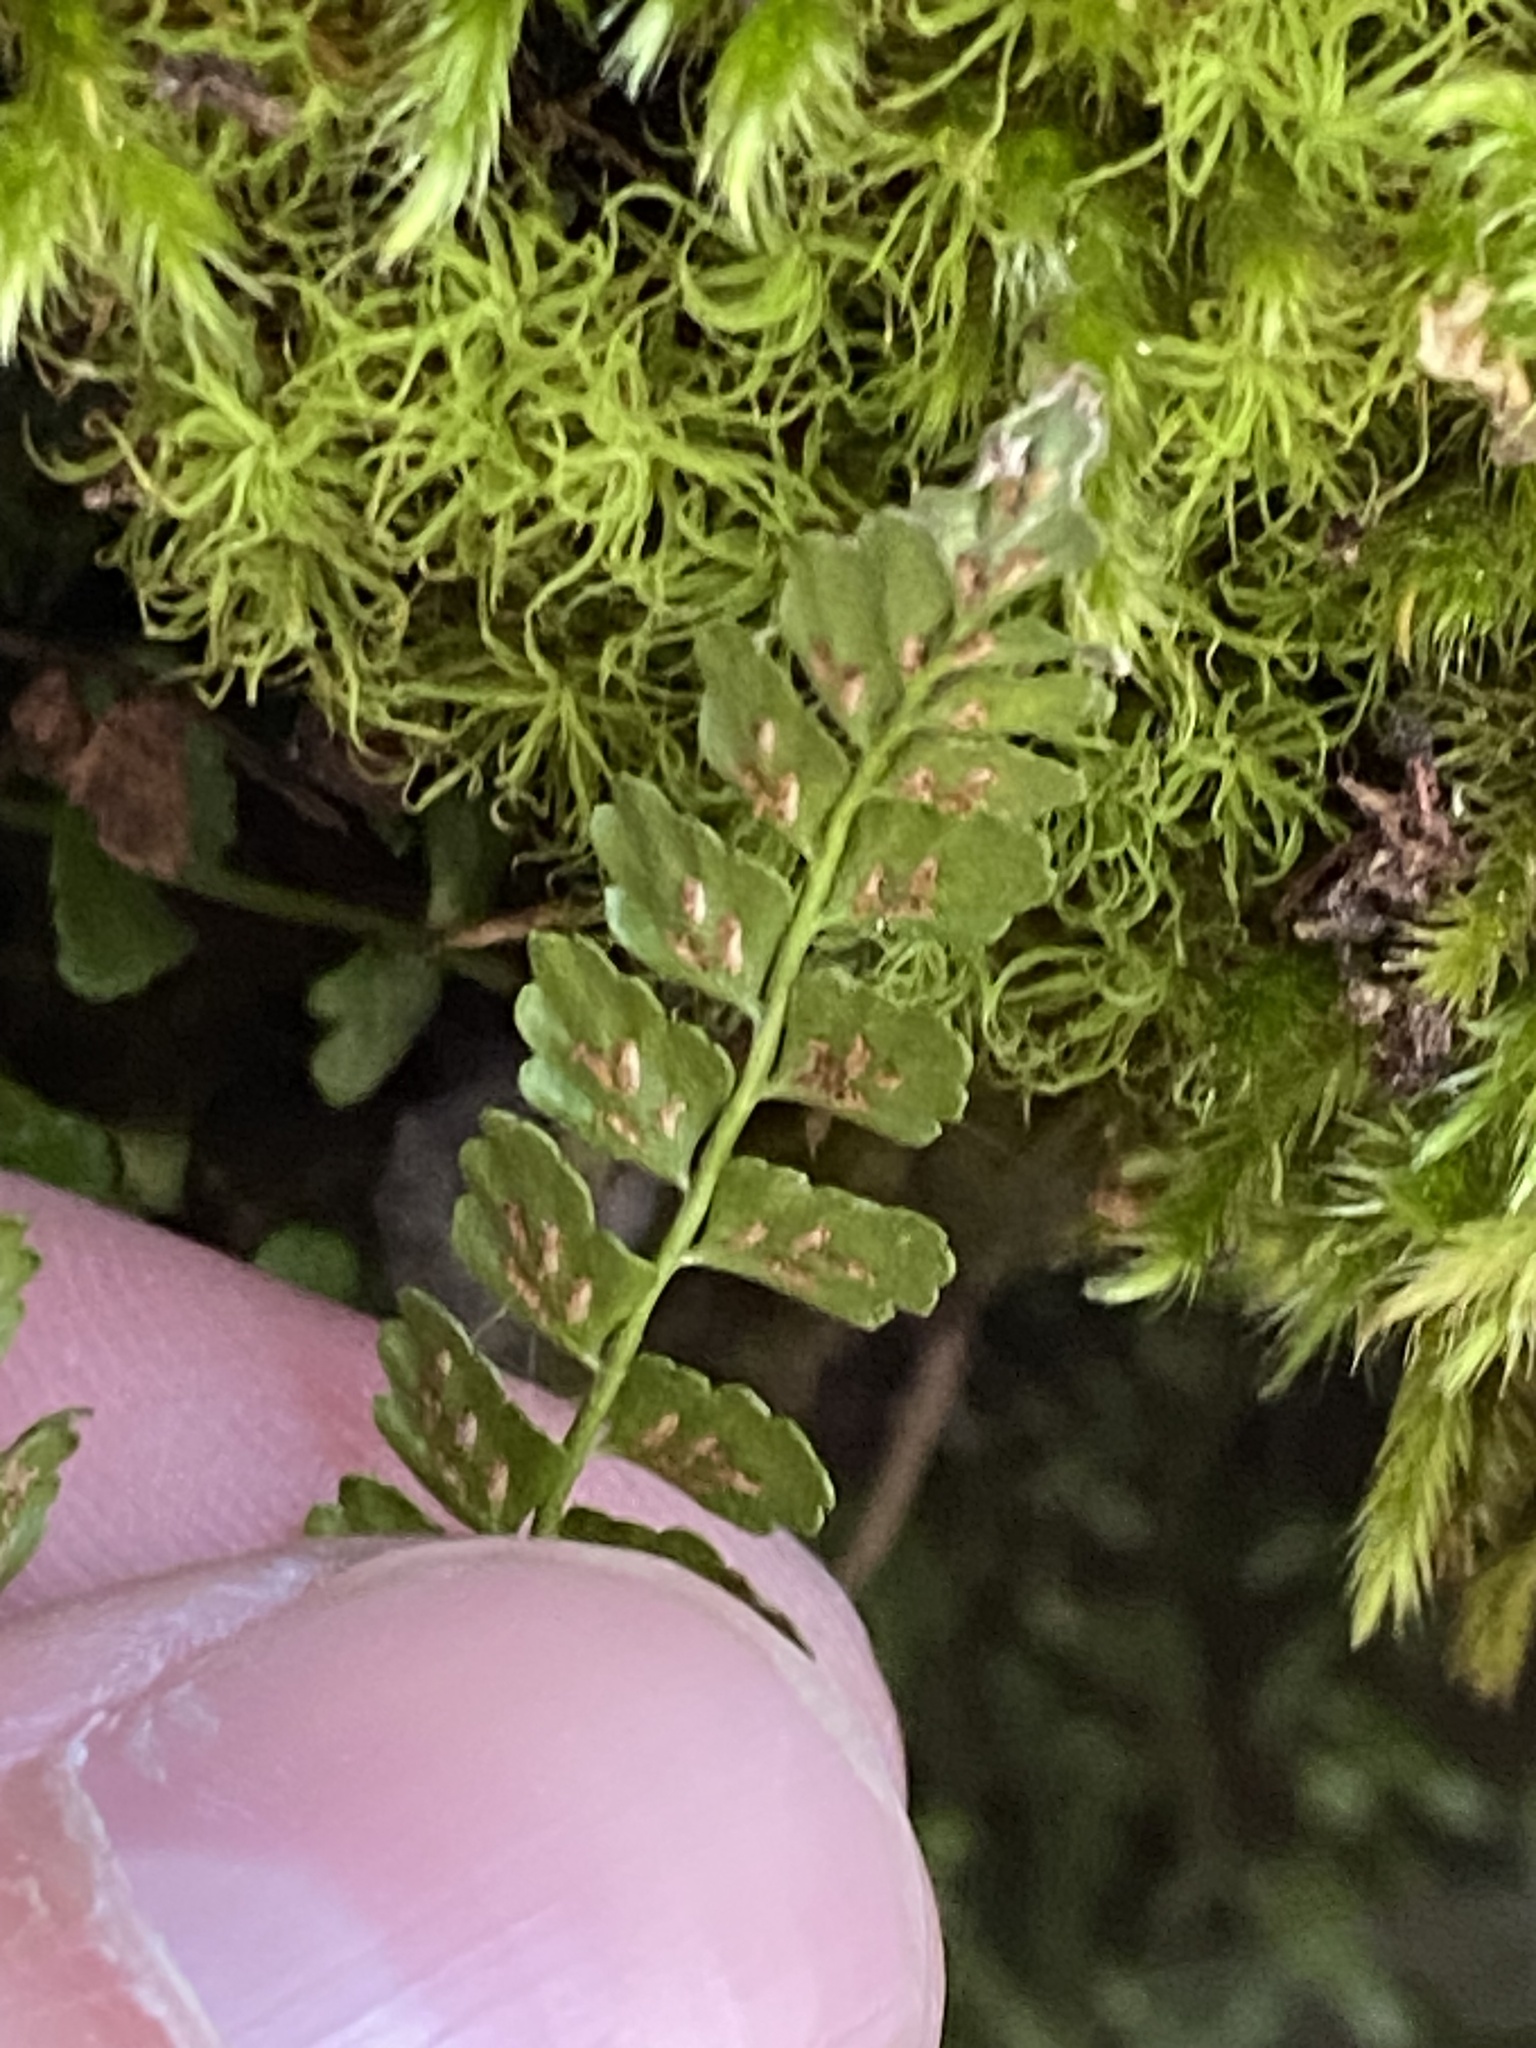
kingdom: Plantae
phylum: Tracheophyta
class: Polypodiopsida
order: Polypodiales
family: Aspleniaceae
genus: Asplenium
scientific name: Asplenium viride
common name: Green spleenwort
